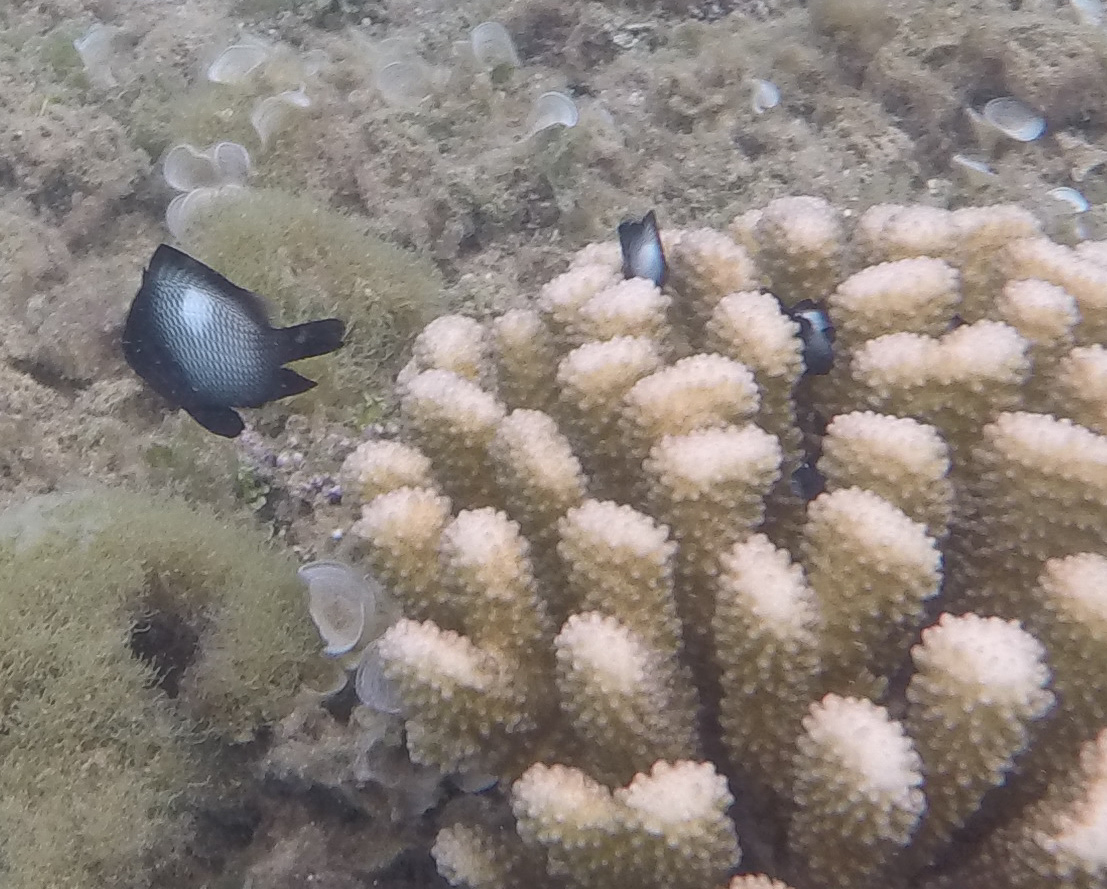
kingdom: Animalia
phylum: Chordata
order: Perciformes
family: Pomacentridae
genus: Dascyllus
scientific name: Dascyllus albisella
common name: Hawaiian dascyllus
